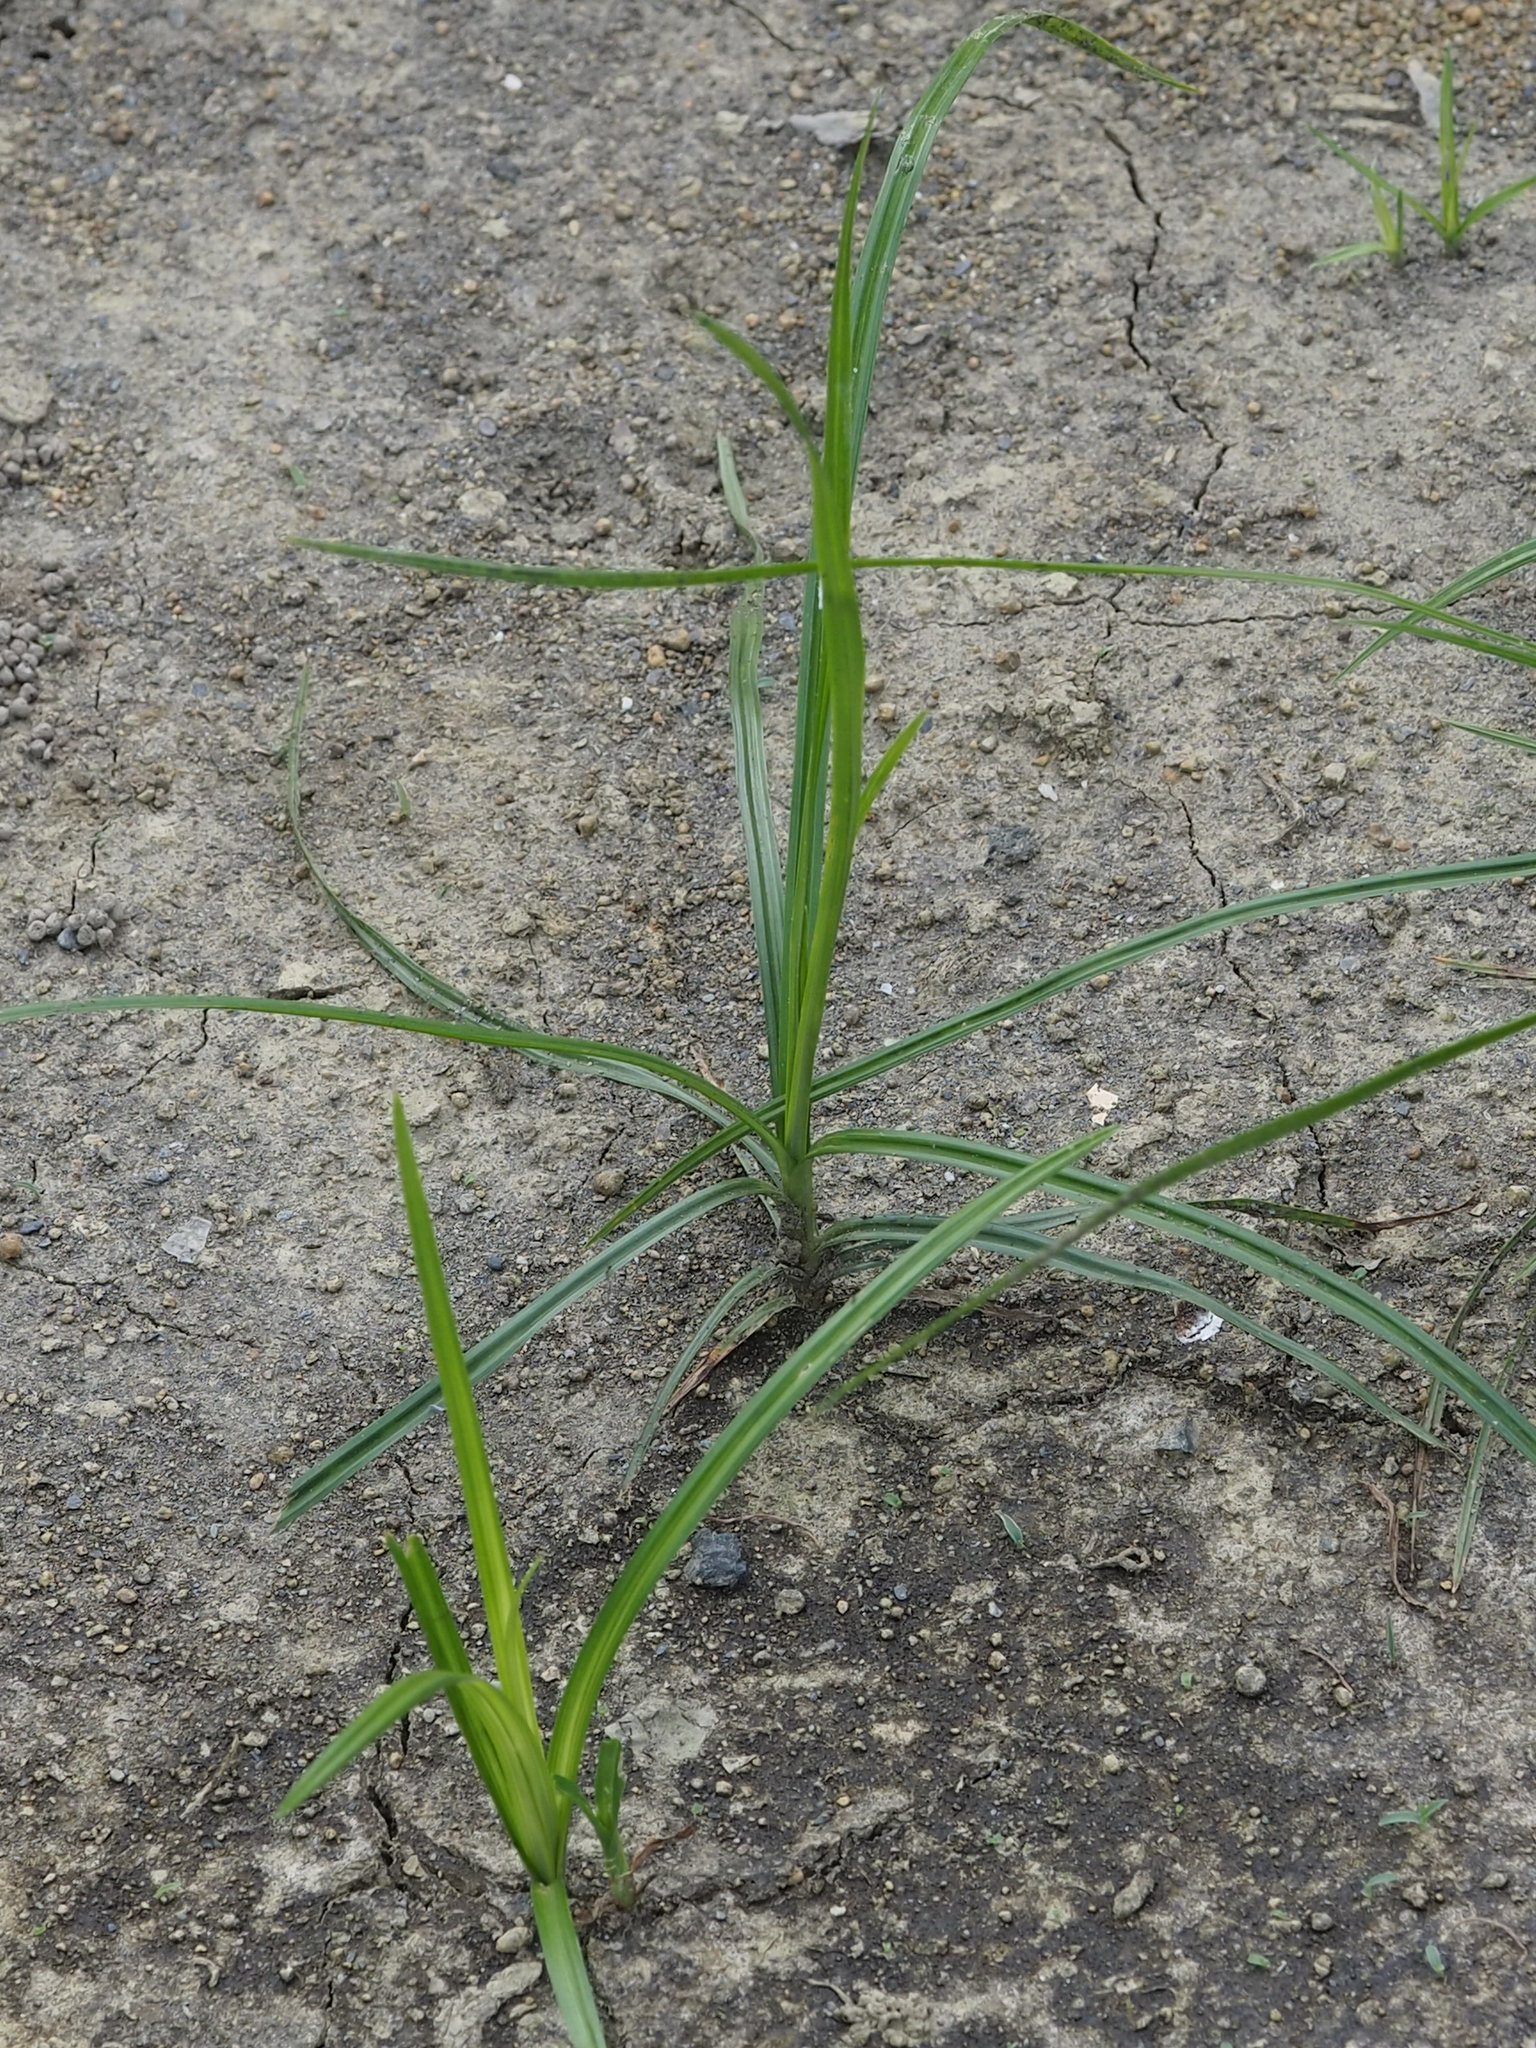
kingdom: Plantae
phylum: Tracheophyta
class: Liliopsida
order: Poales
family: Cyperaceae
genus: Cyperus
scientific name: Cyperus rotundus
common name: Nutgrass
